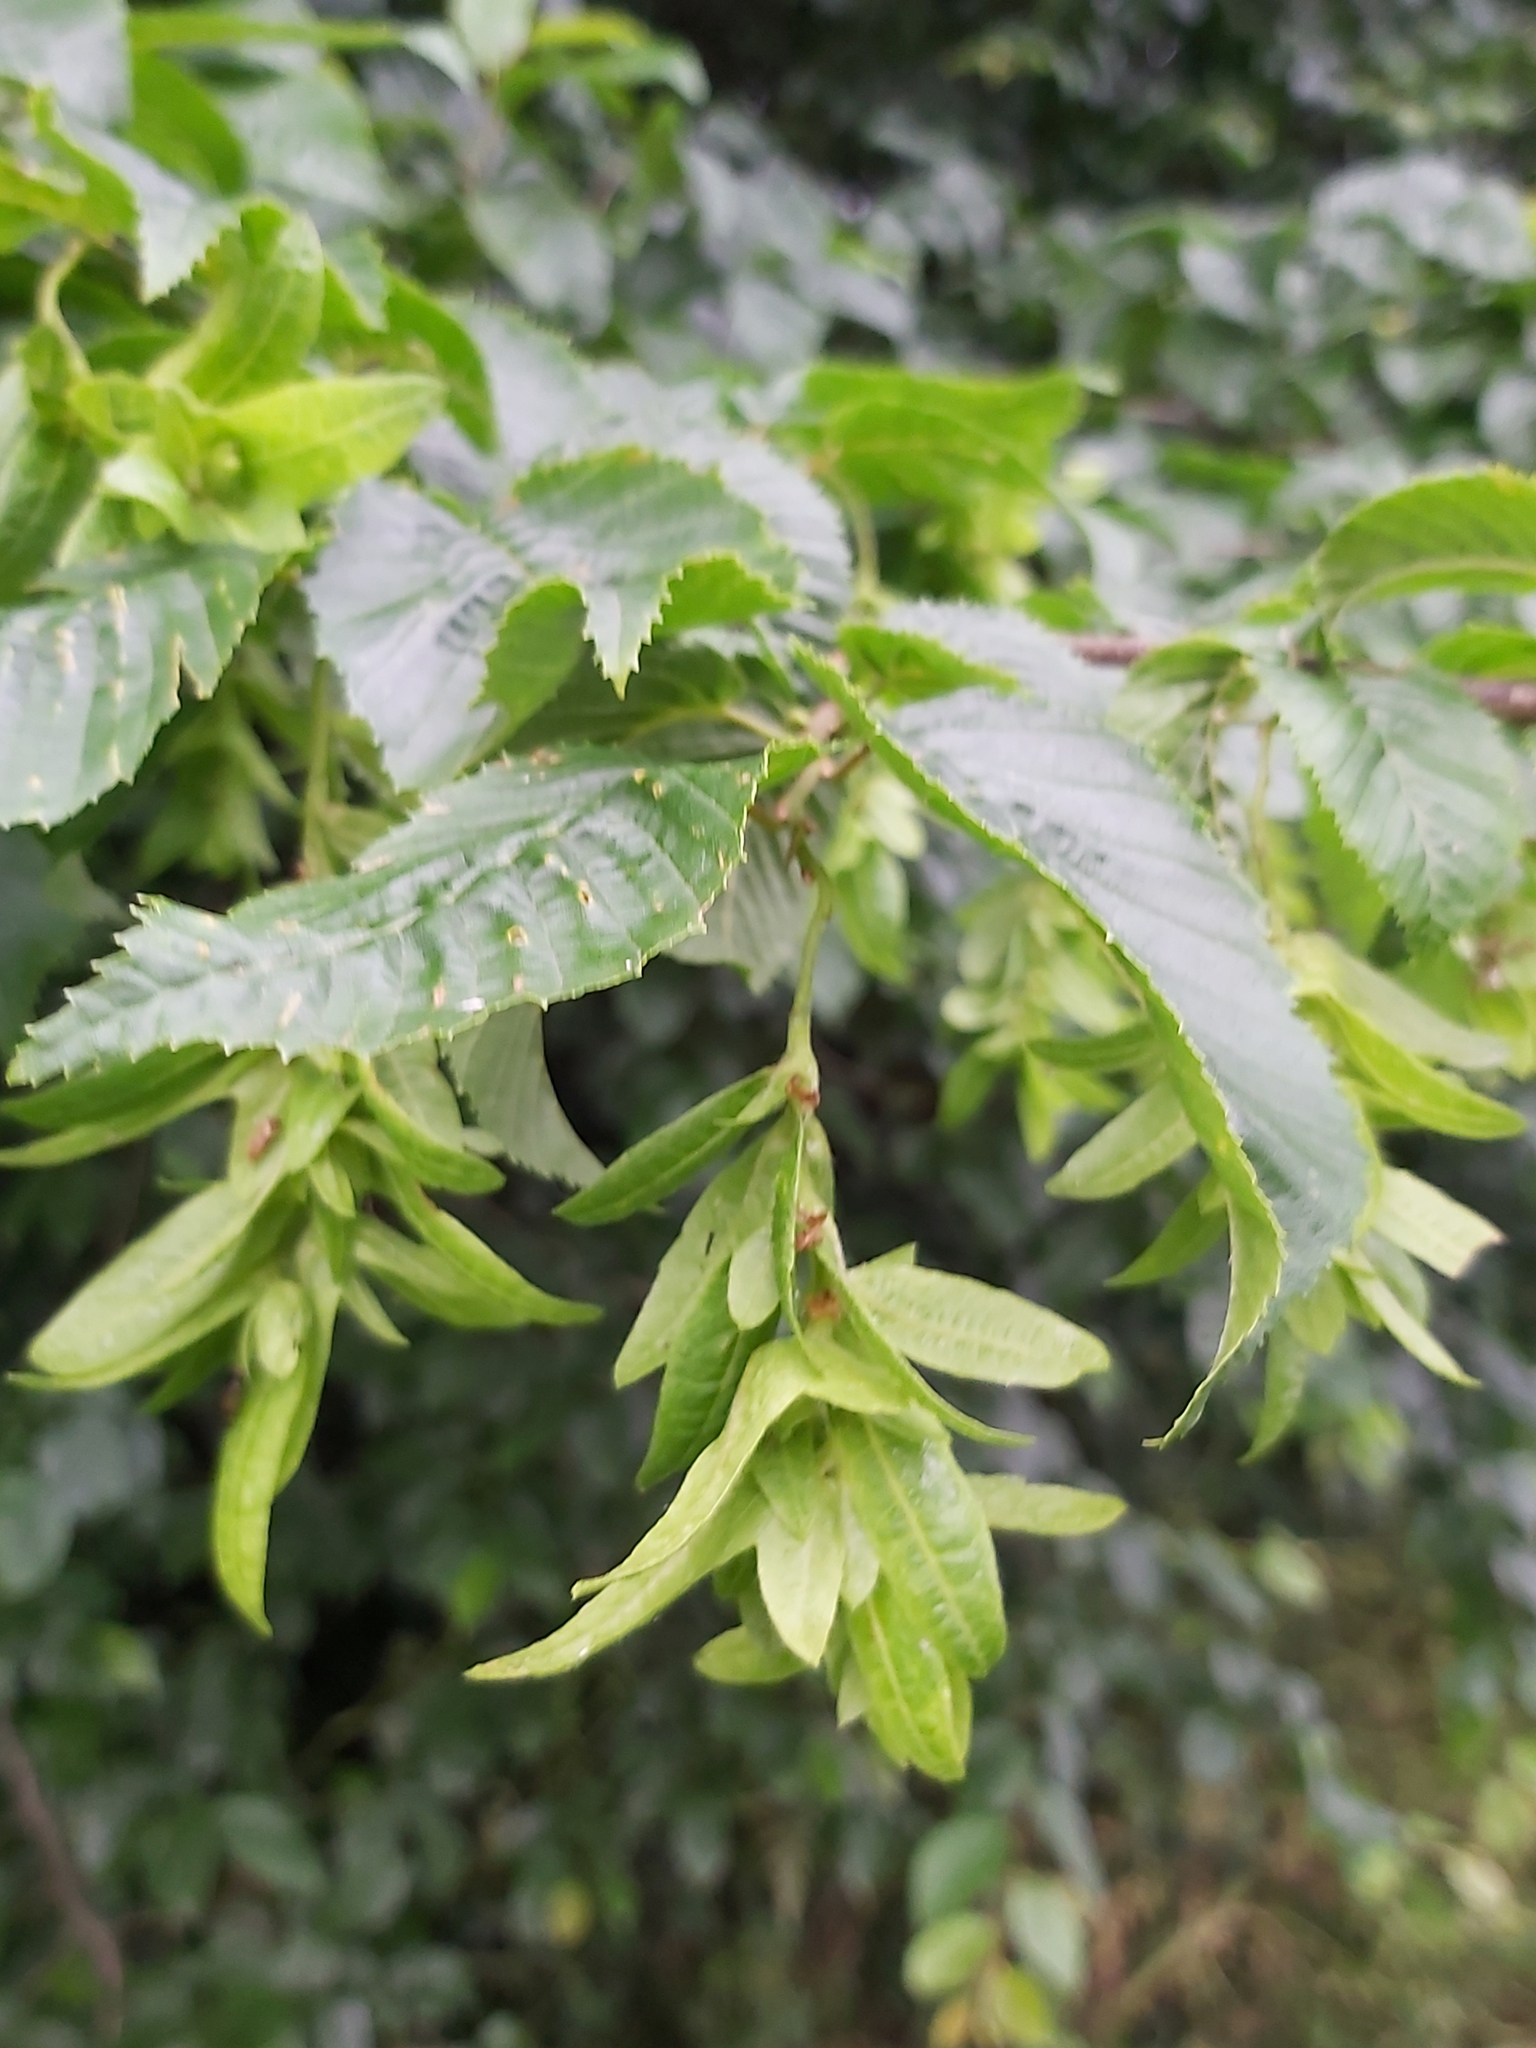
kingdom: Plantae
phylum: Tracheophyta
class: Magnoliopsida
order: Fagales
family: Betulaceae
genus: Carpinus
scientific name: Carpinus betulus
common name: Hornbeam
